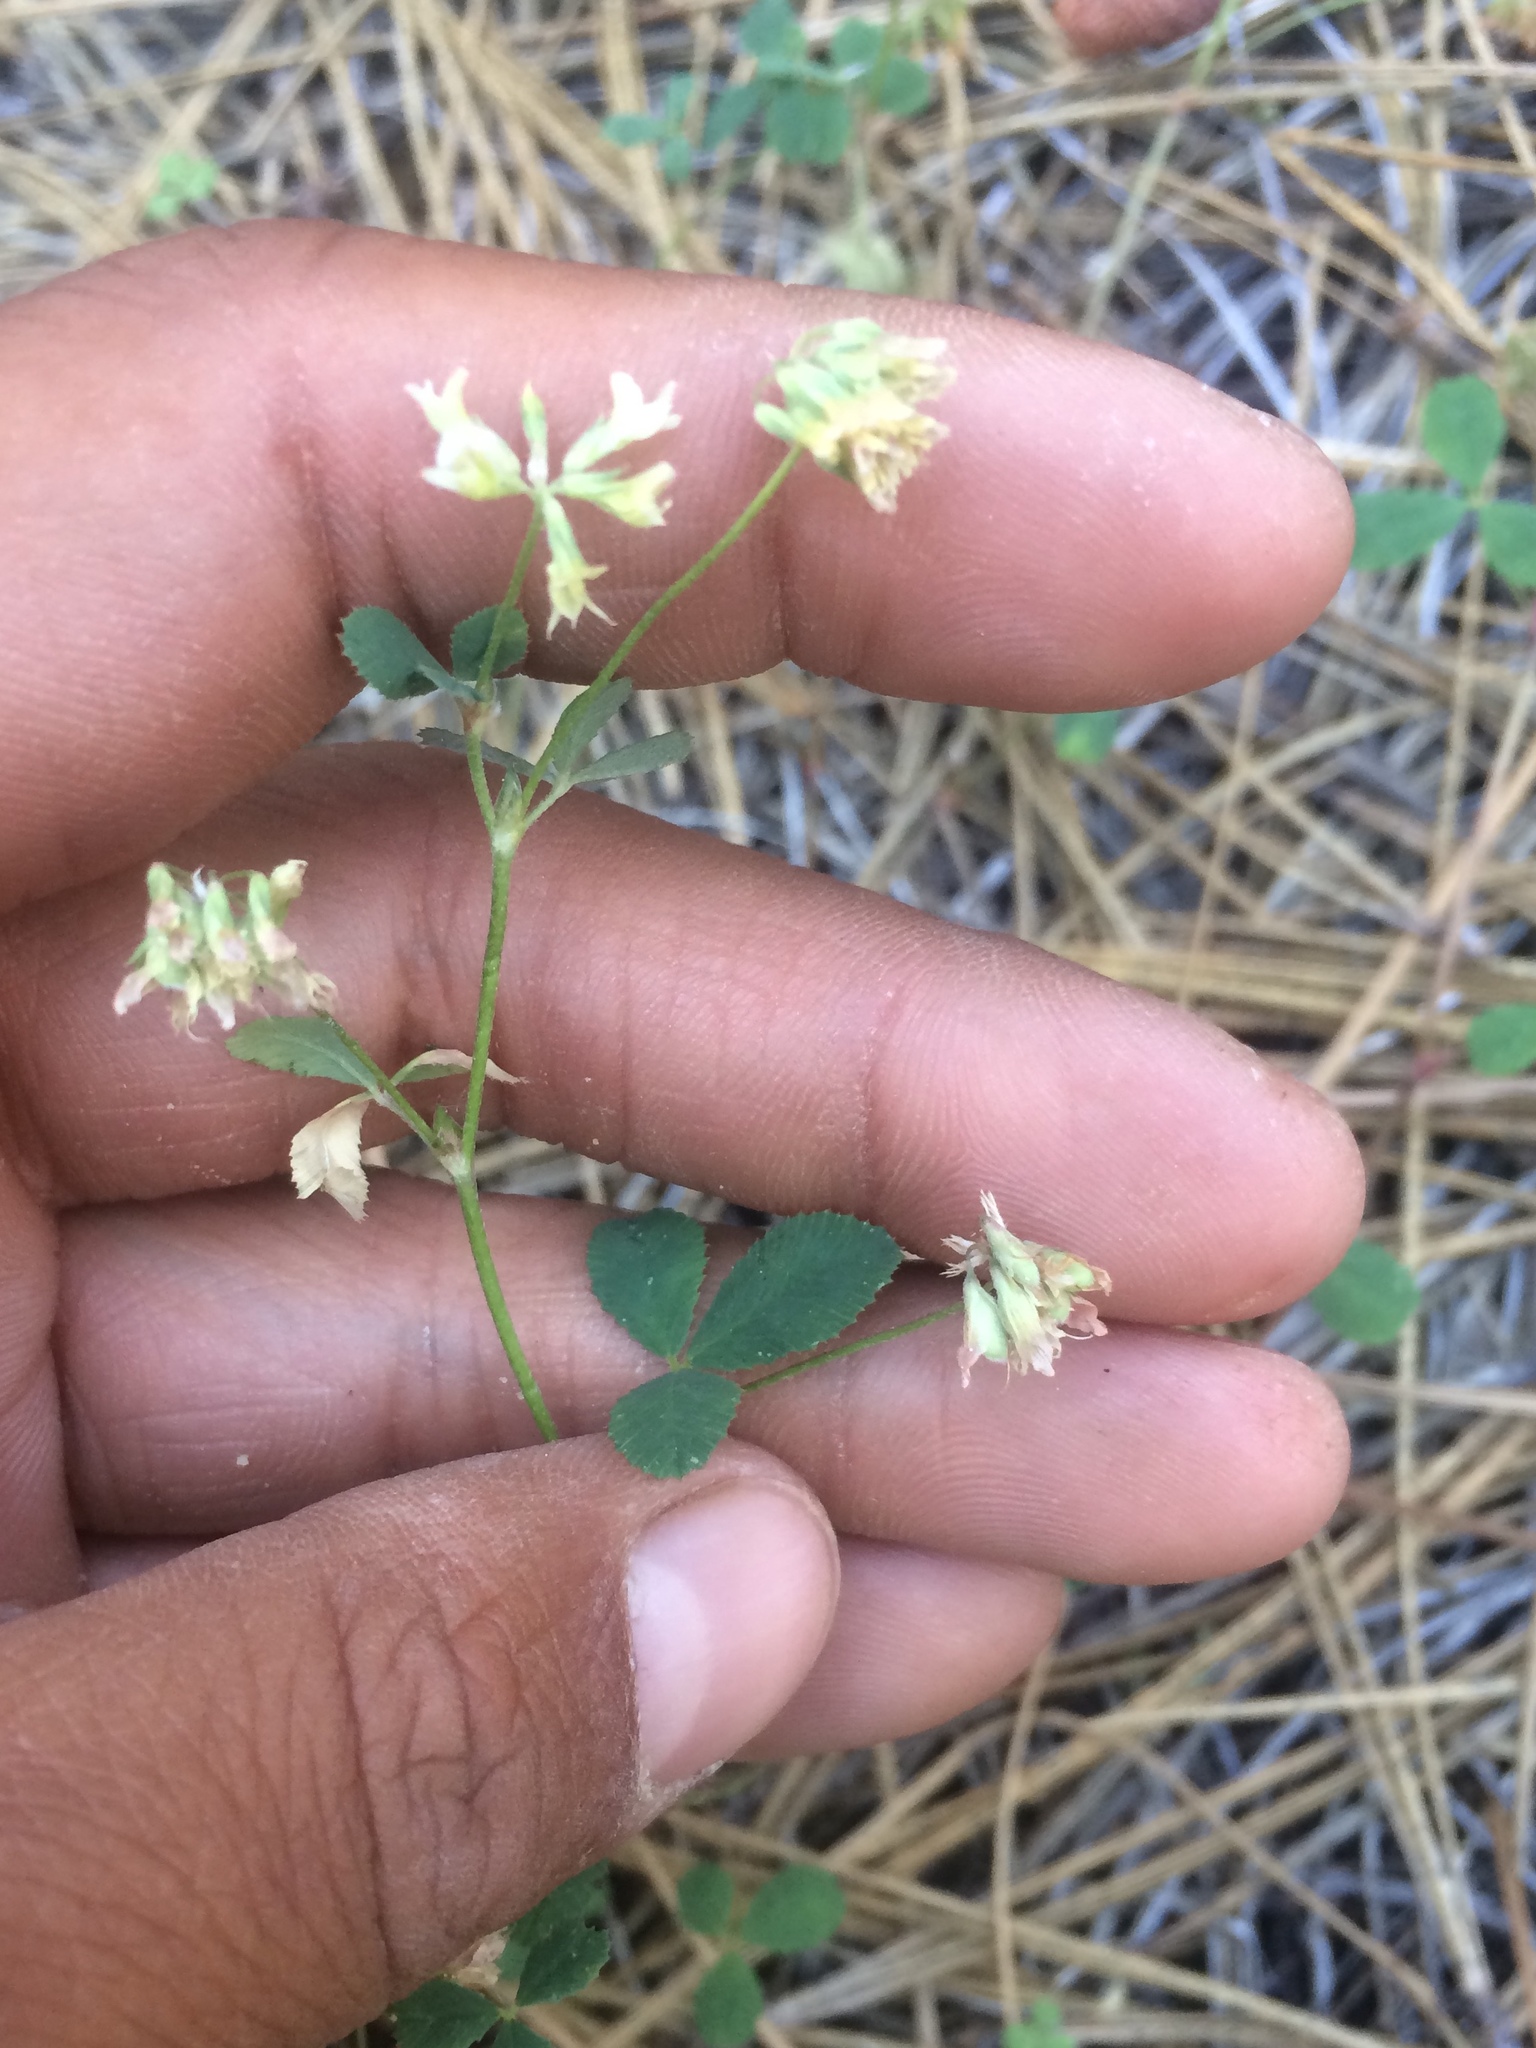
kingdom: Plantae
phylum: Tracheophyta
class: Magnoliopsida
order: Fabales
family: Fabaceae
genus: Trifolium
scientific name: Trifolium breweri
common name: Forest clover
